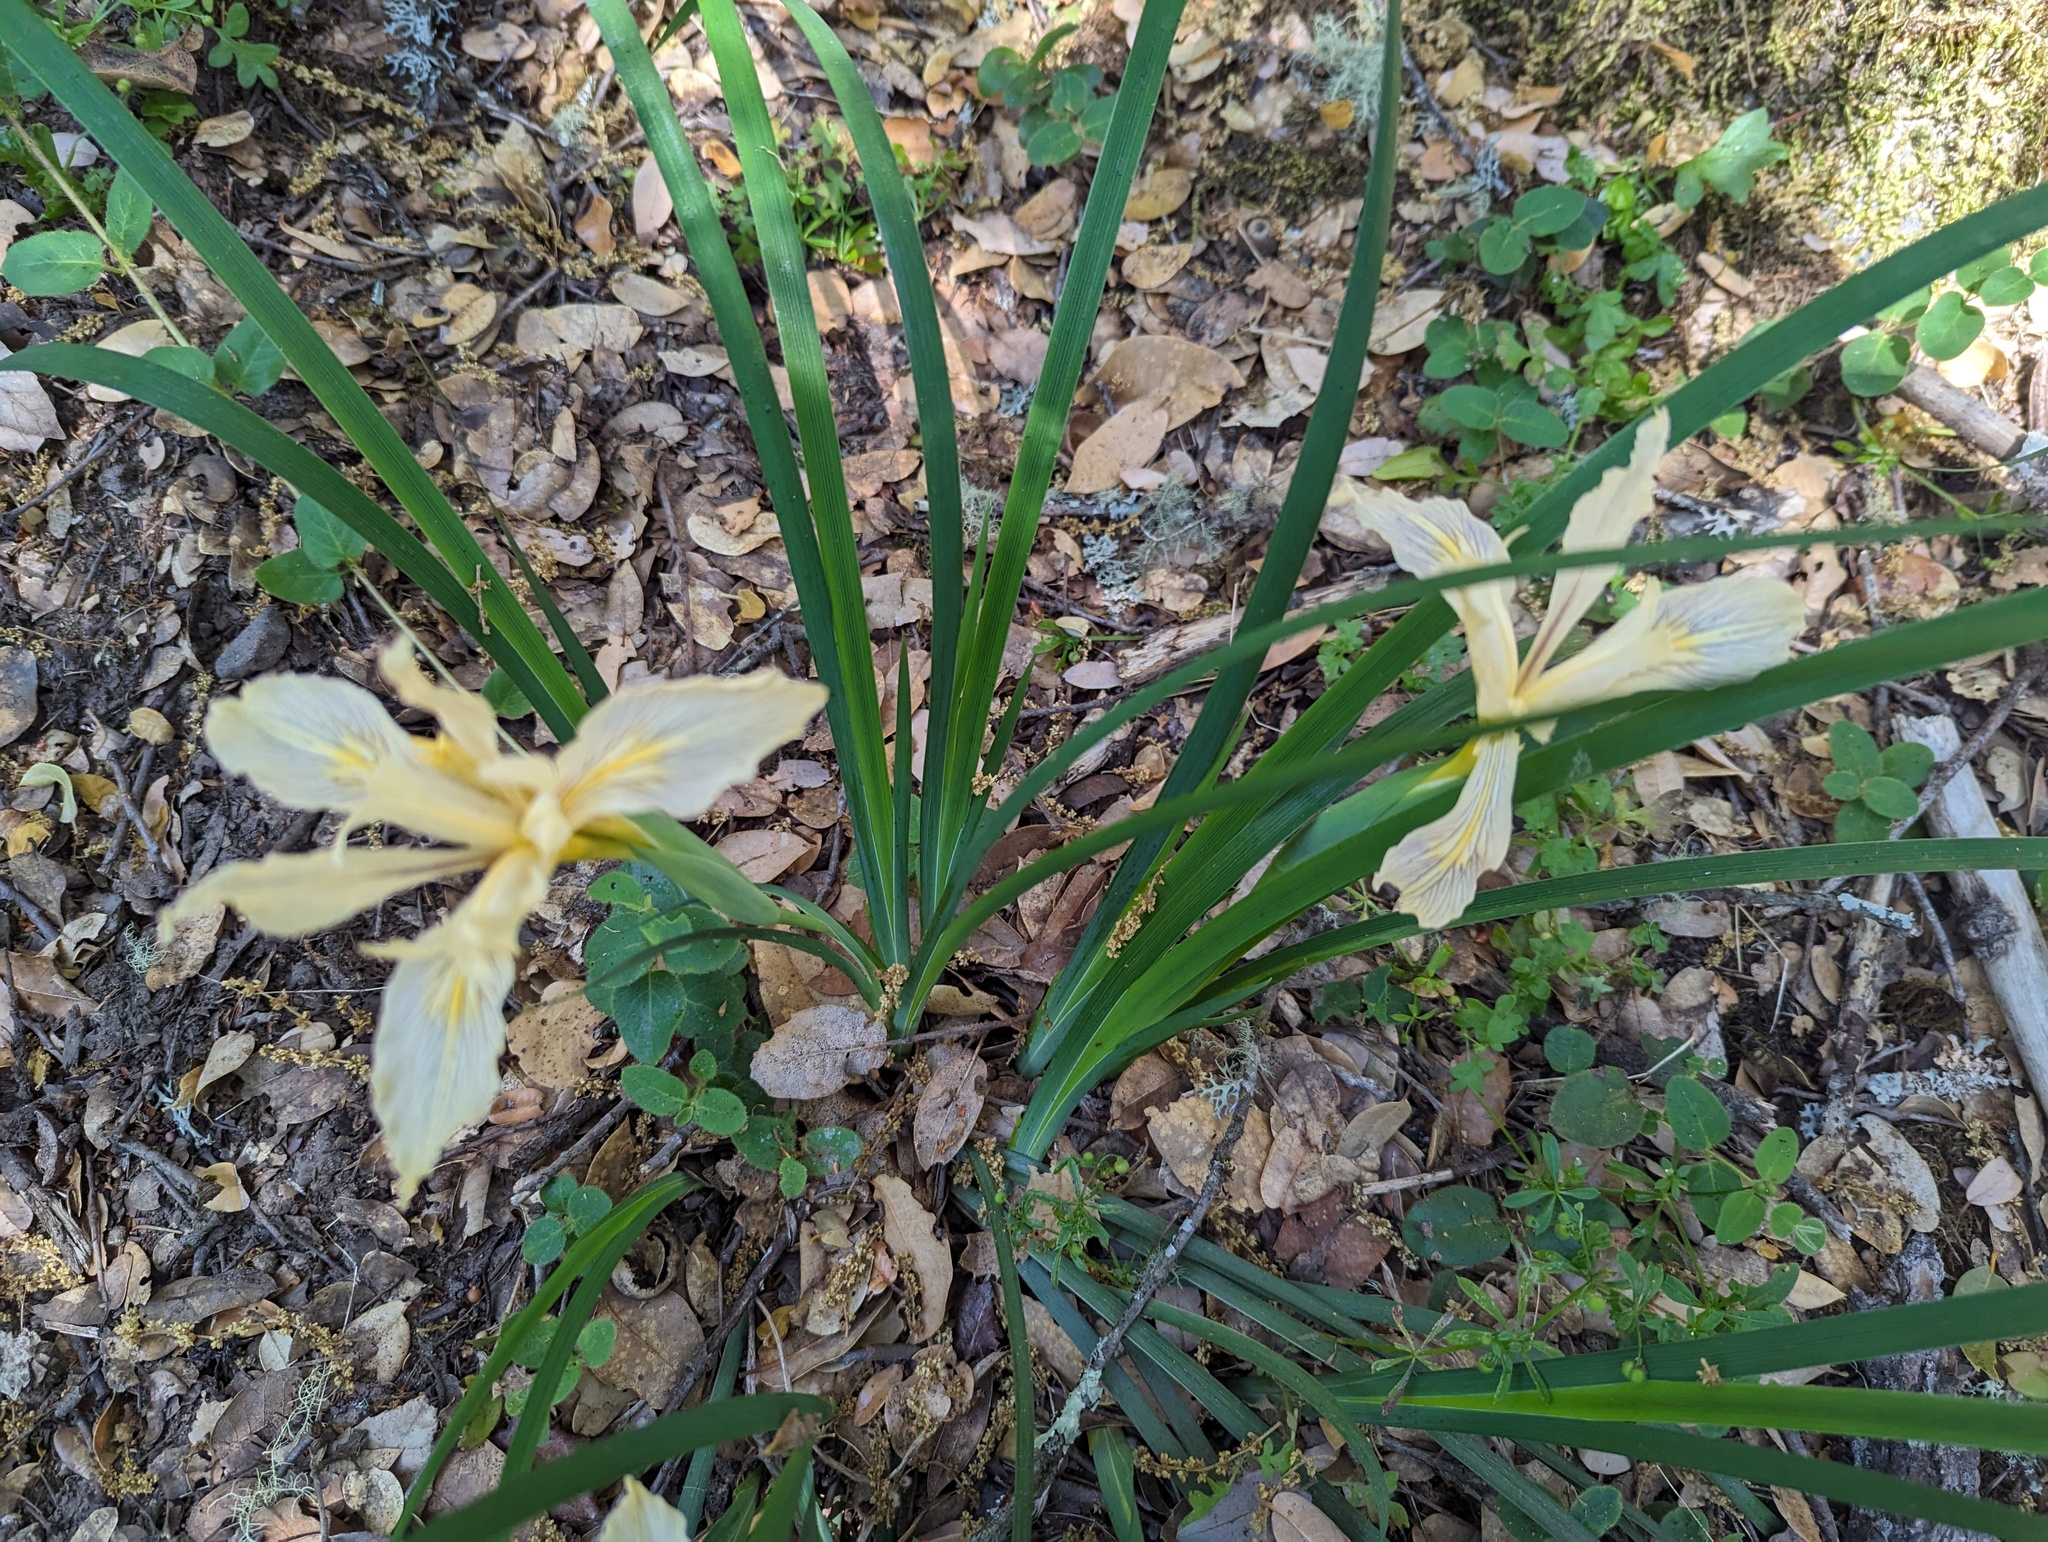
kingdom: Plantae
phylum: Tracheophyta
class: Liliopsida
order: Asparagales
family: Iridaceae
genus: Iris
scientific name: Iris fernaldii
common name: Fernald's iris
